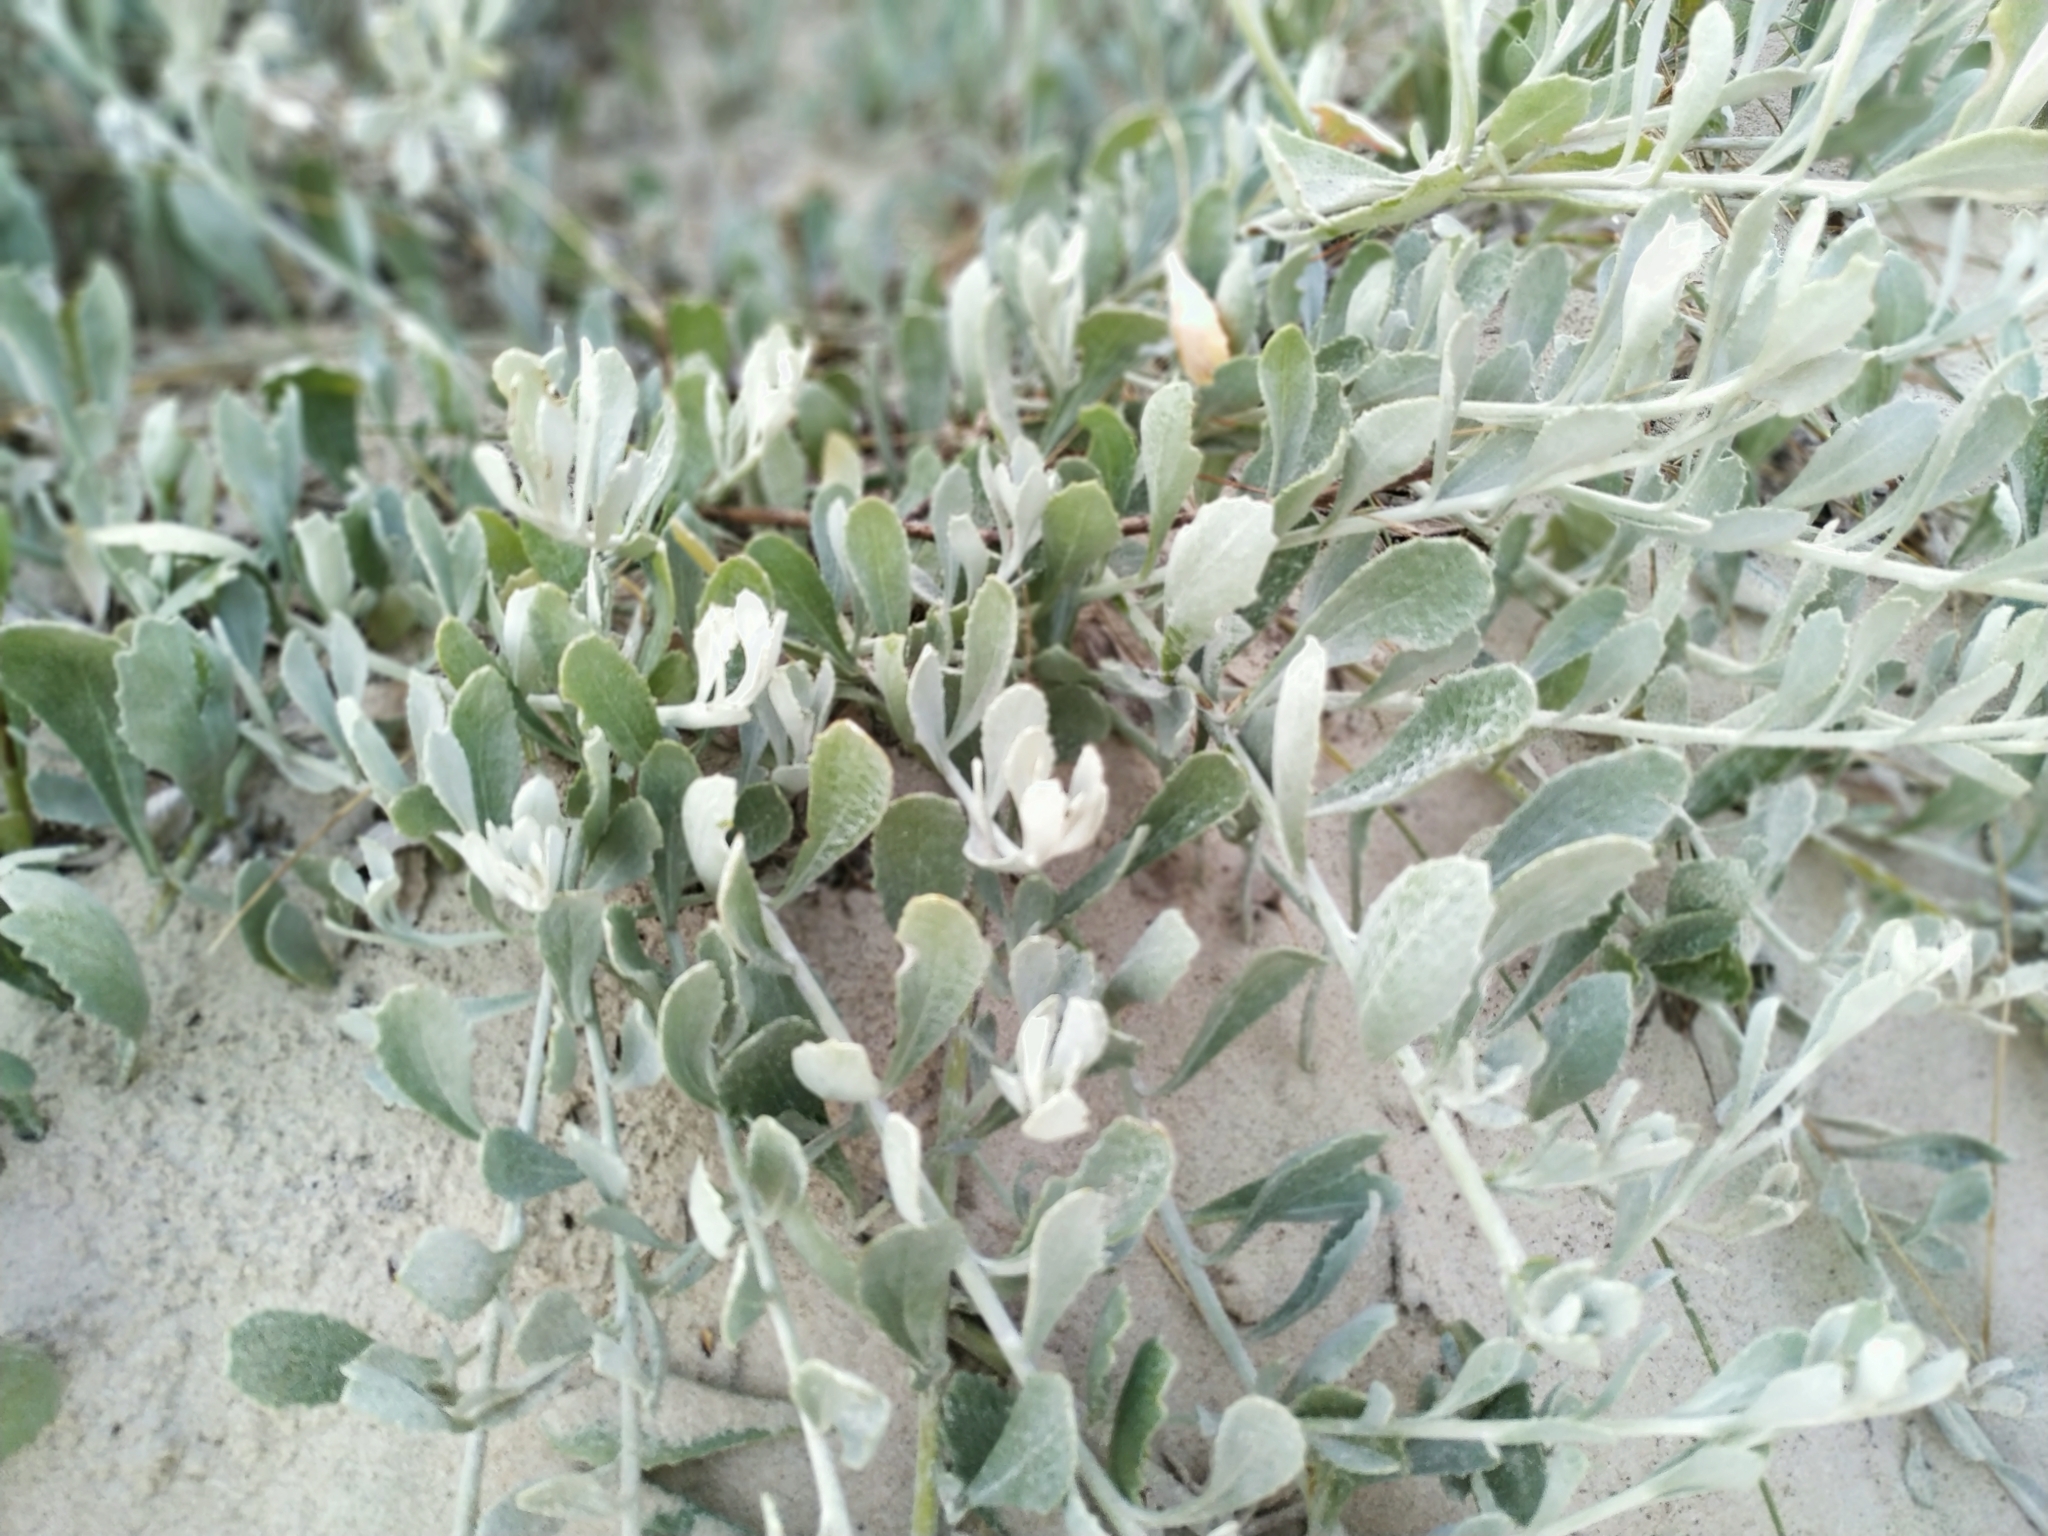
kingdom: Plantae
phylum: Tracheophyta
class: Magnoliopsida
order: Asterales
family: Asteraceae
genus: Senecio
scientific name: Senecio crassiflorus
